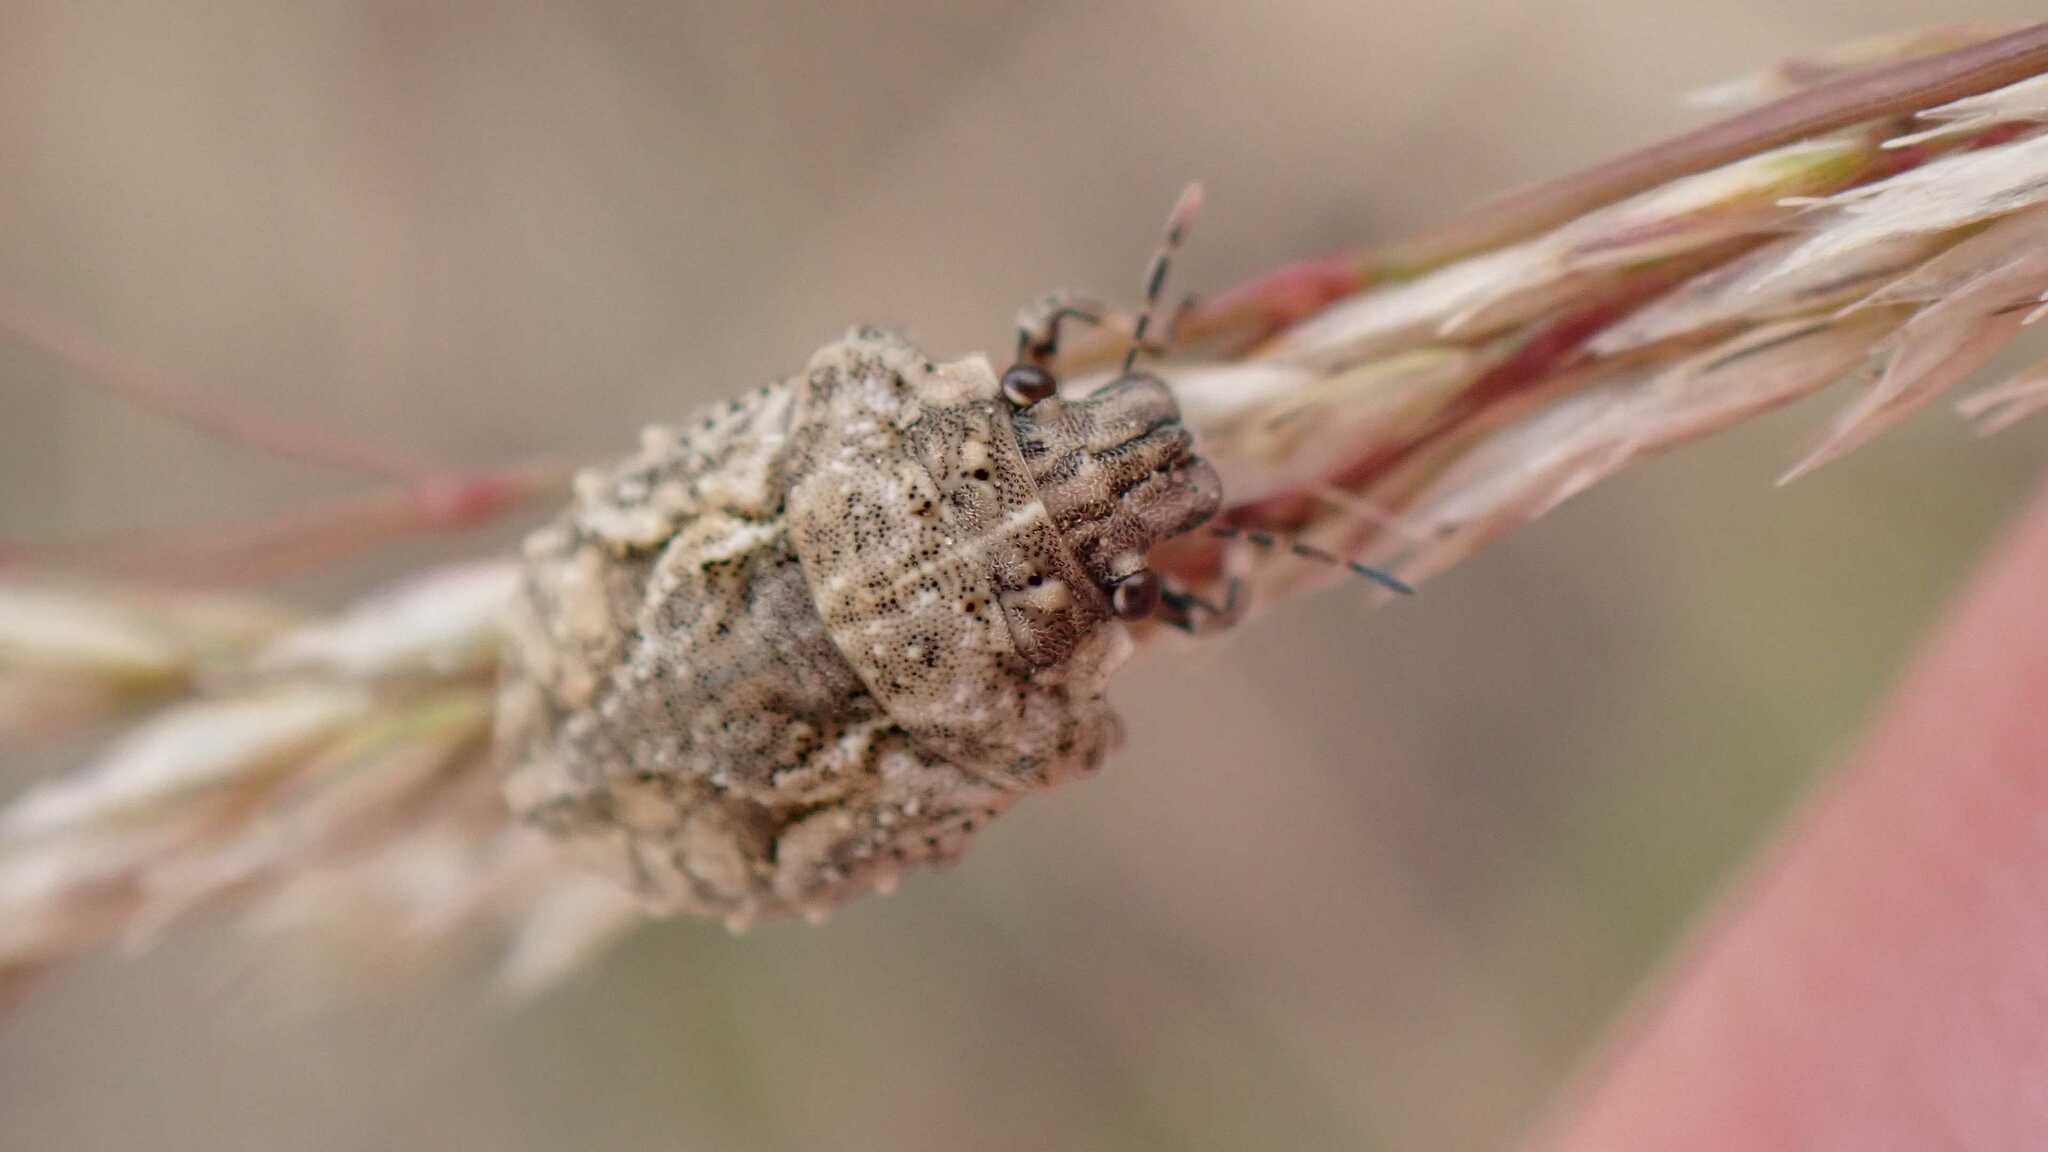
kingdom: Animalia
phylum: Arthropoda
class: Insecta
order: Hemiptera
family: Scutelleridae
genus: Phimodera
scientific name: Phimodera humeralis
